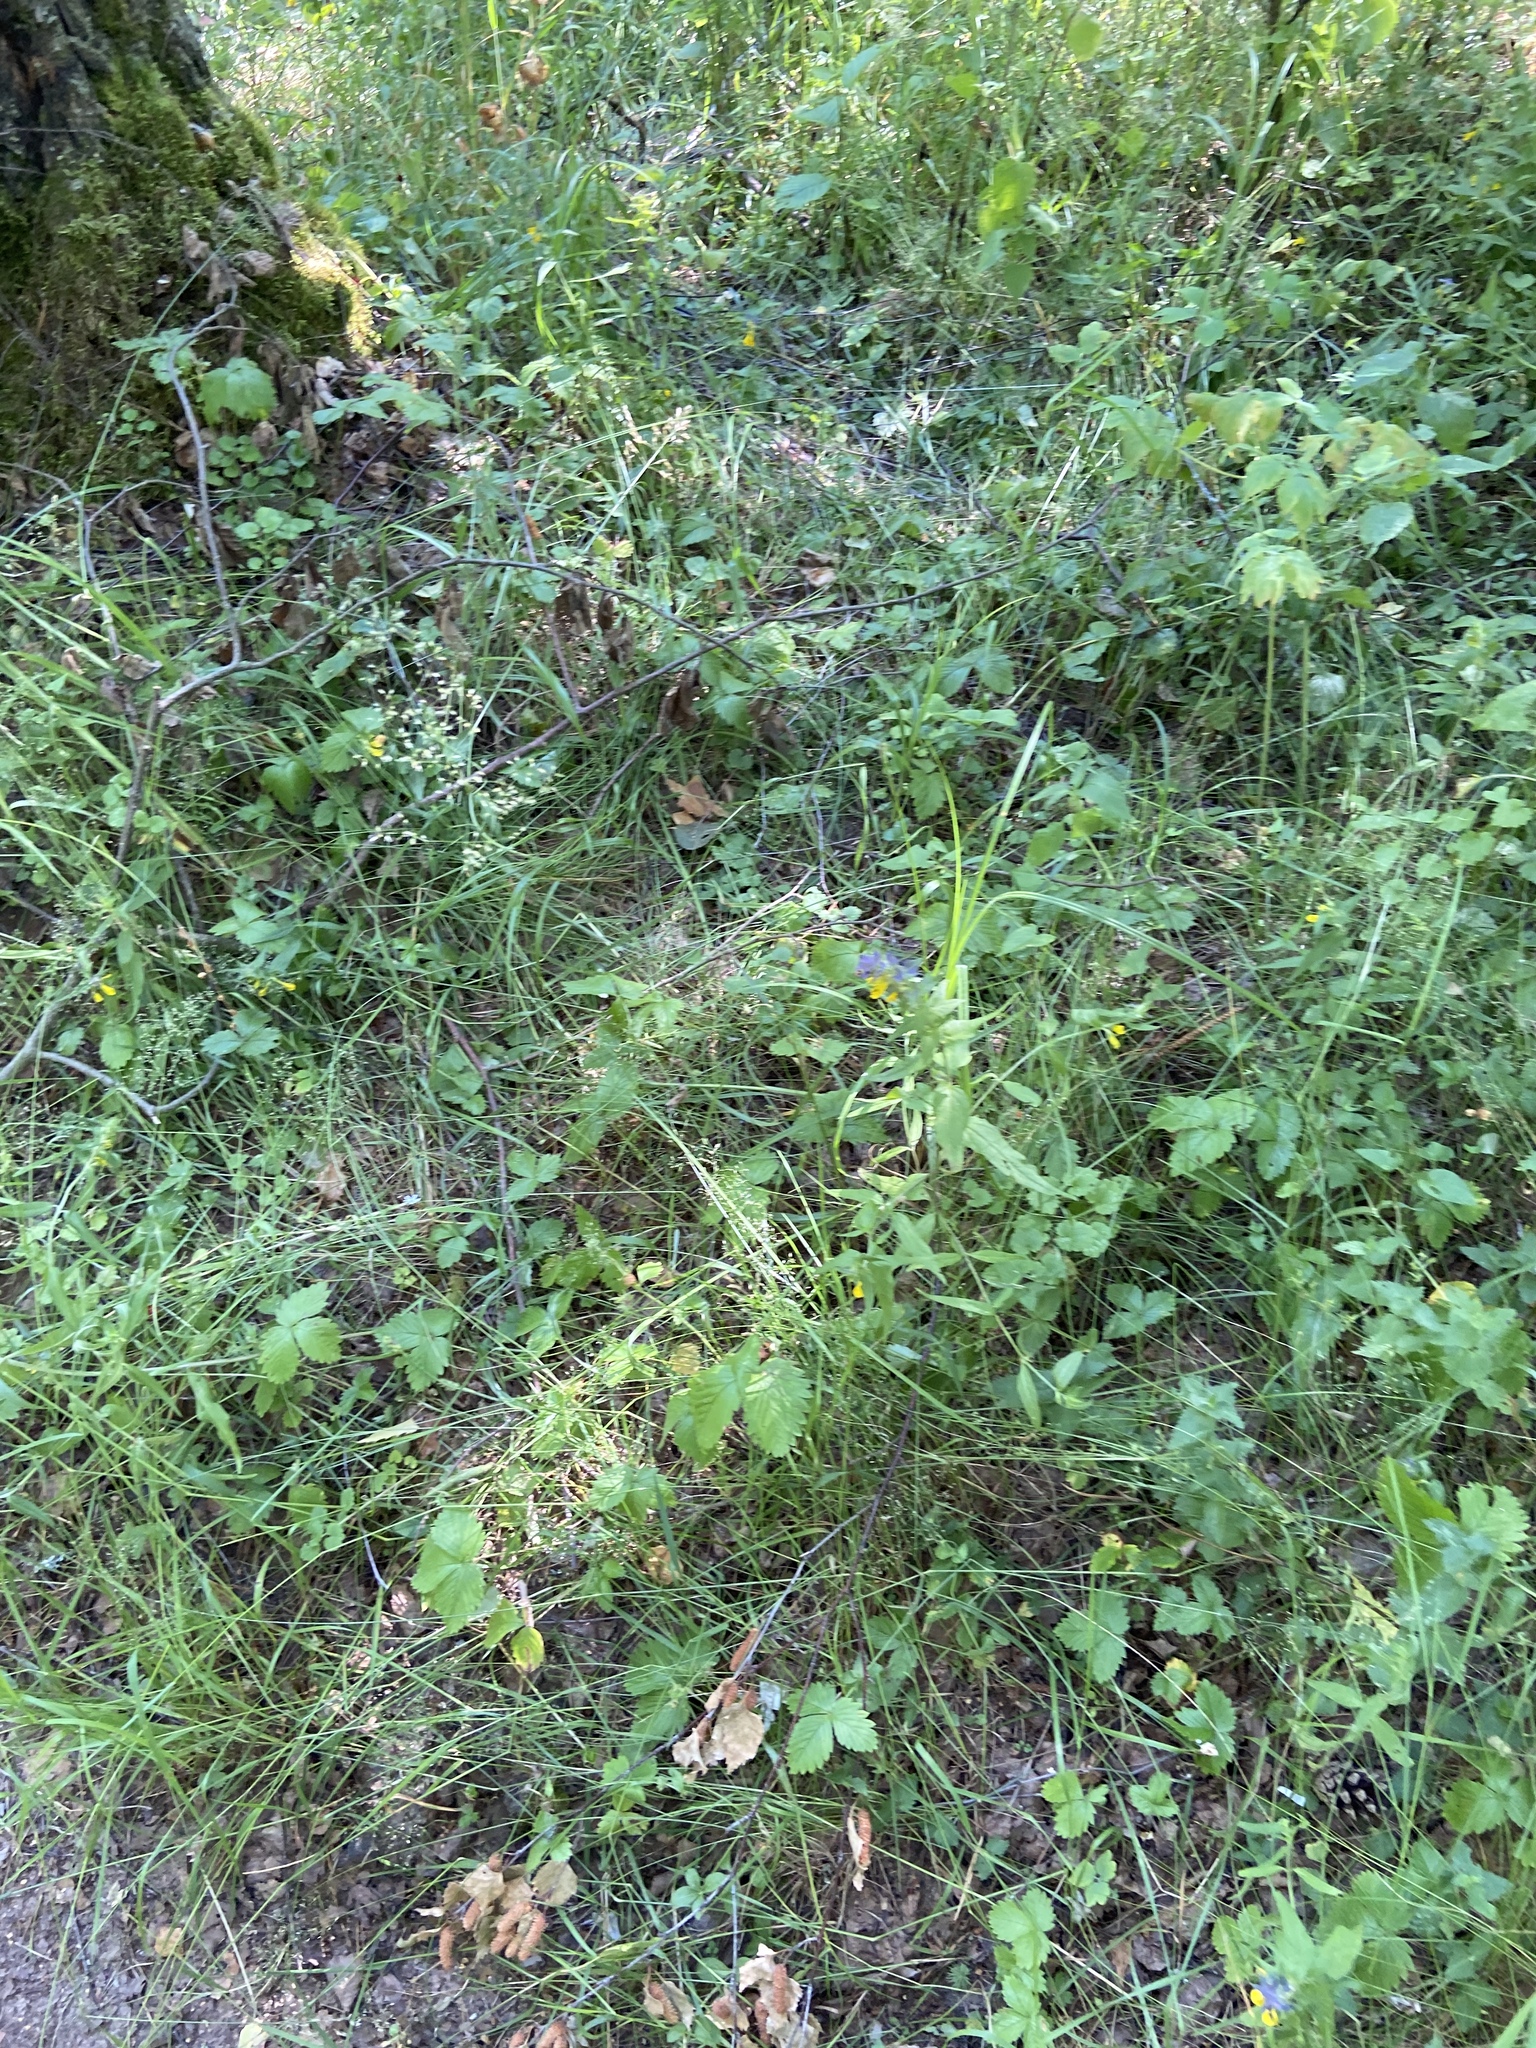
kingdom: Plantae
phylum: Tracheophyta
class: Magnoliopsida
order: Lamiales
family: Orobanchaceae
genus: Melampyrum
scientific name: Melampyrum nemorosum
